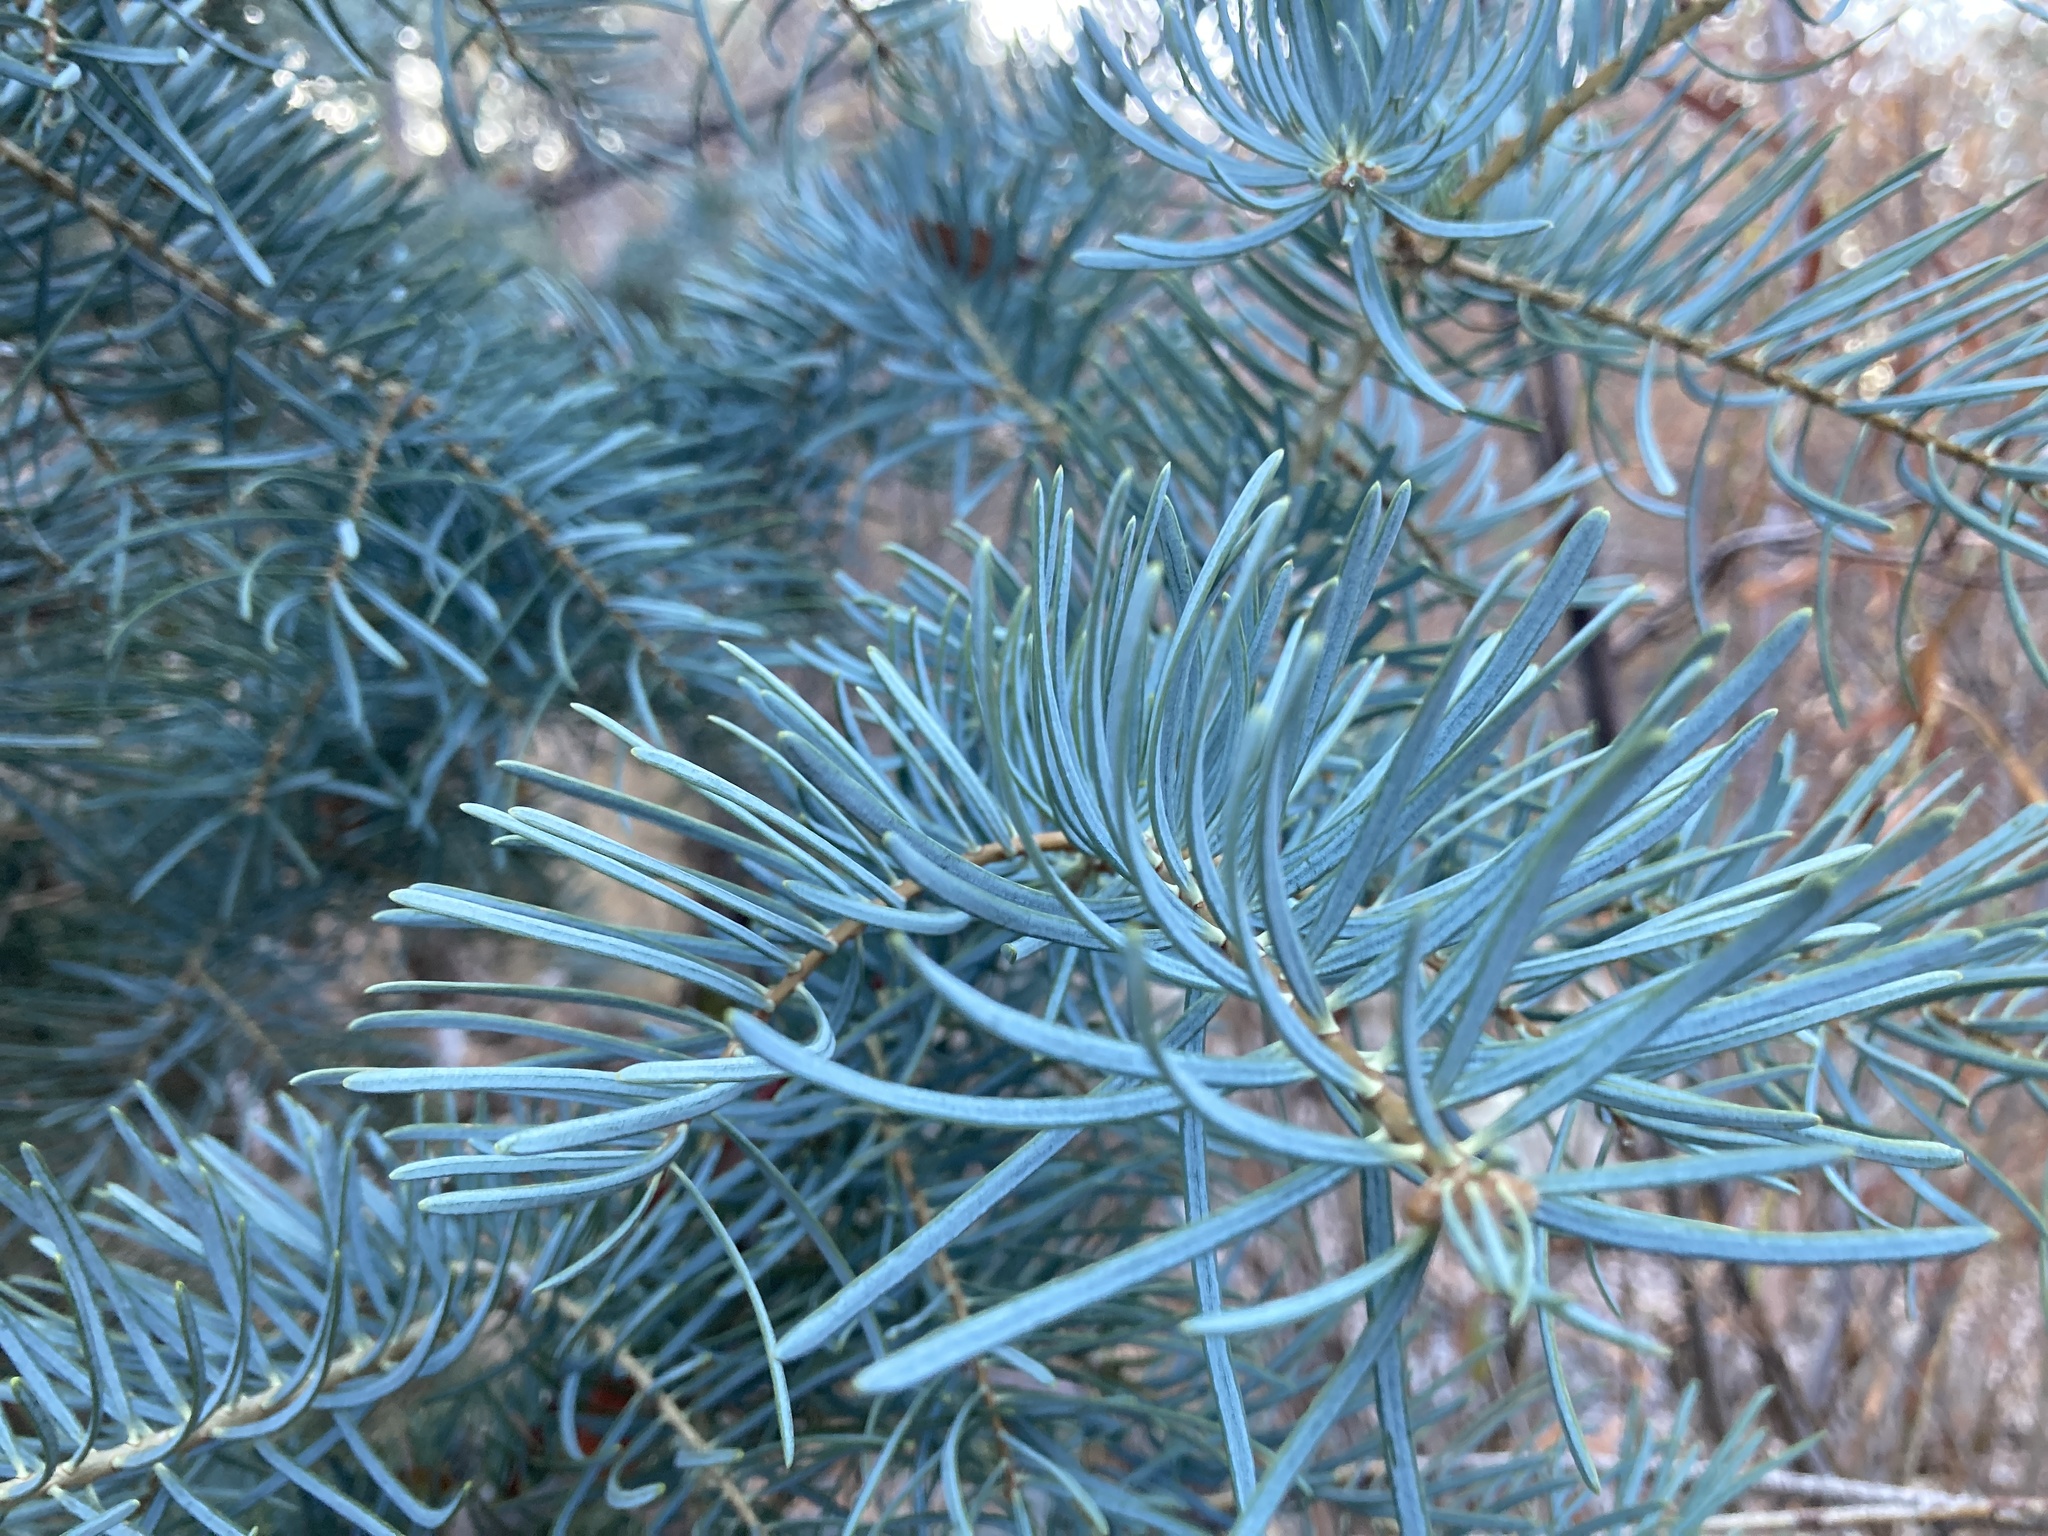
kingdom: Plantae
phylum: Tracheophyta
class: Pinopsida
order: Pinales
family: Pinaceae
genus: Abies
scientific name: Abies concolor
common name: Colorado fir
